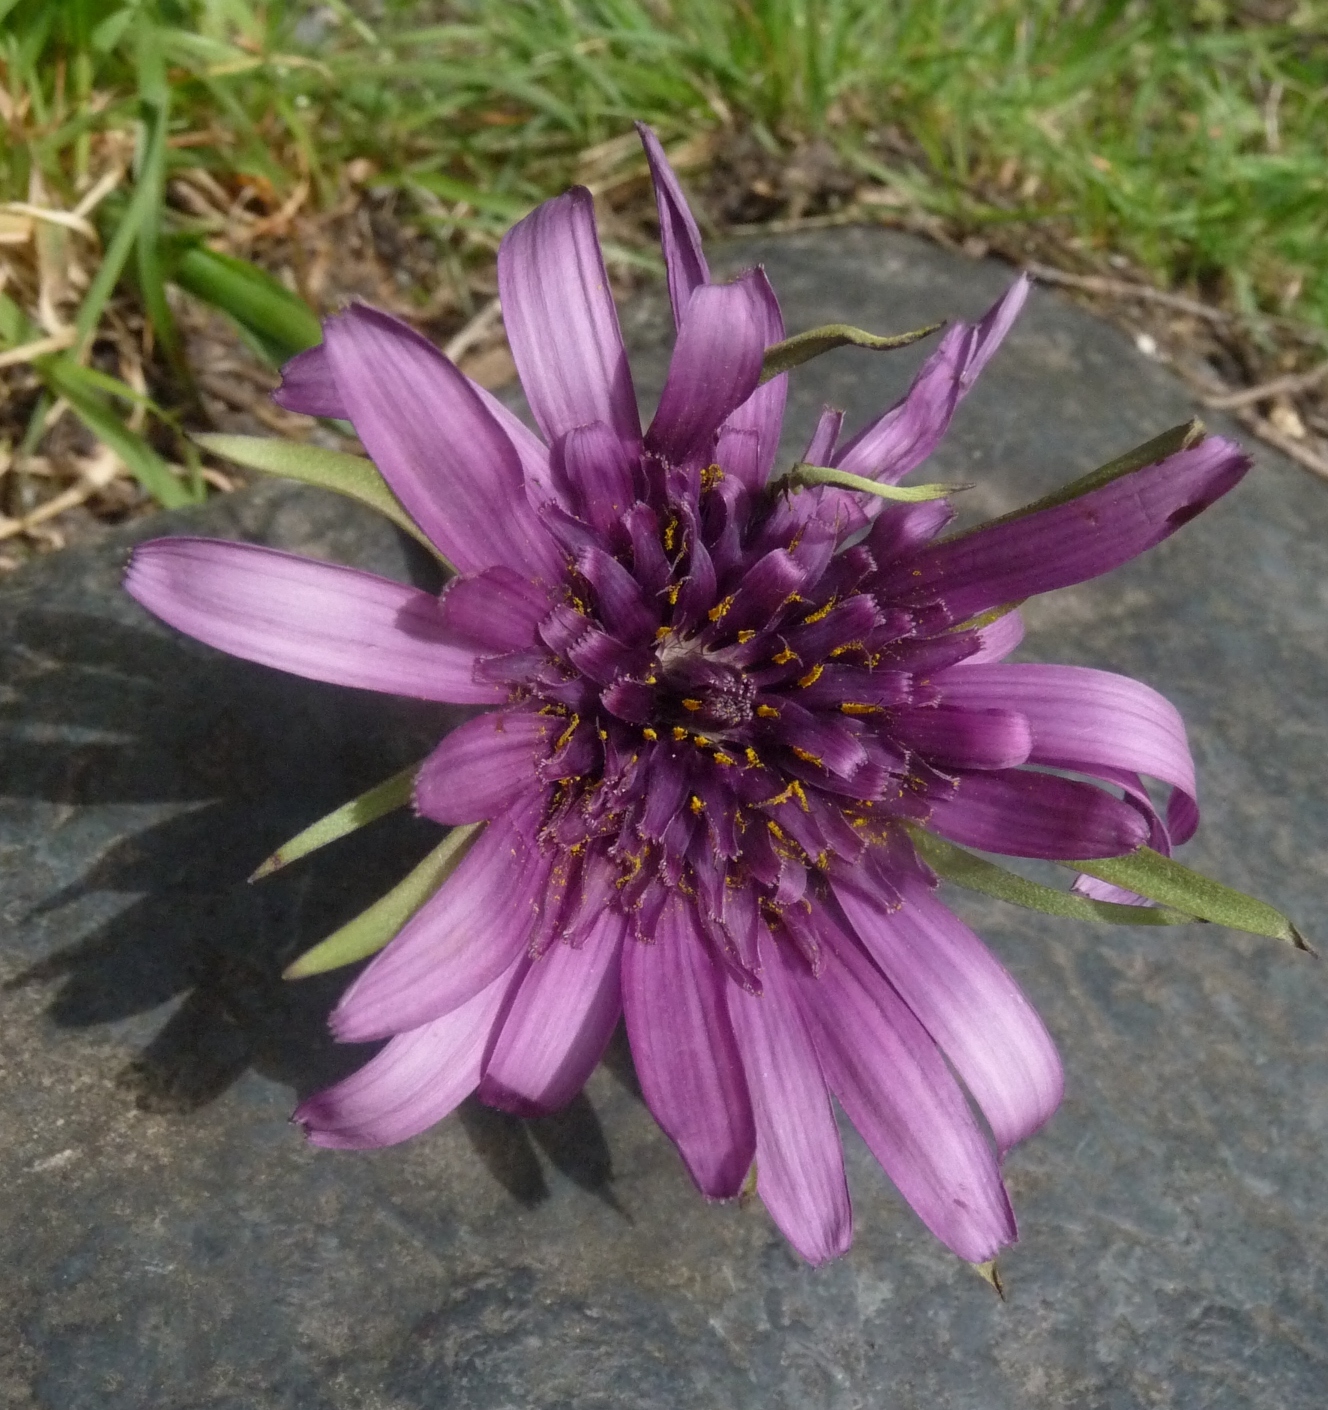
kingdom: Plantae
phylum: Tracheophyta
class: Magnoliopsida
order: Asterales
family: Asteraceae
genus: Tragopogon
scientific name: Tragopogon porrifolius
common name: Salsify
